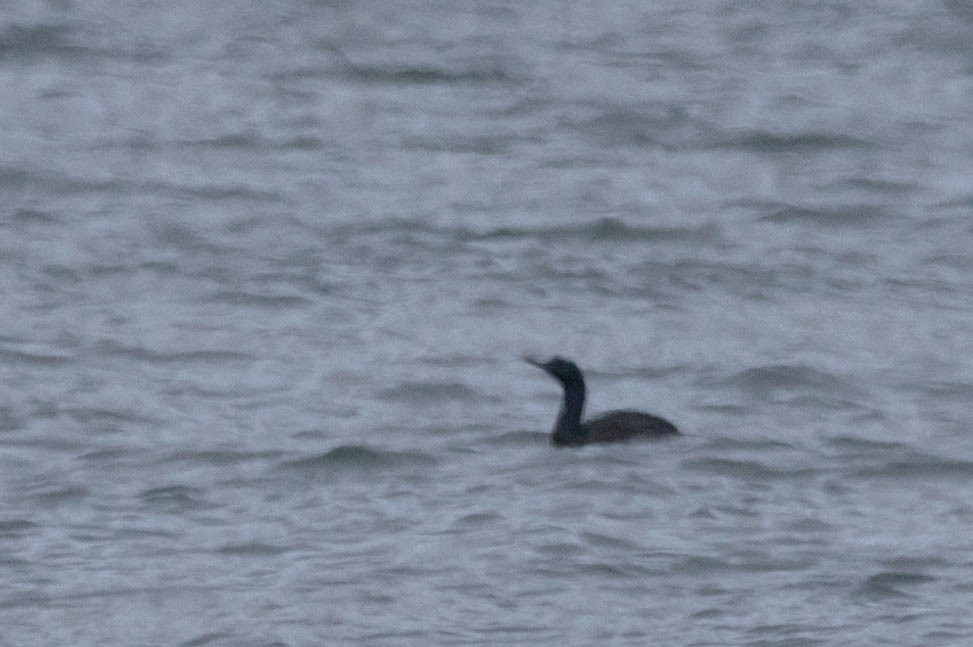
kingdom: Animalia
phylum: Chordata
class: Aves
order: Suliformes
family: Phalacrocoracidae
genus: Phalacrocorax
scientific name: Phalacrocorax pelagicus
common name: Pelagic cormorant
